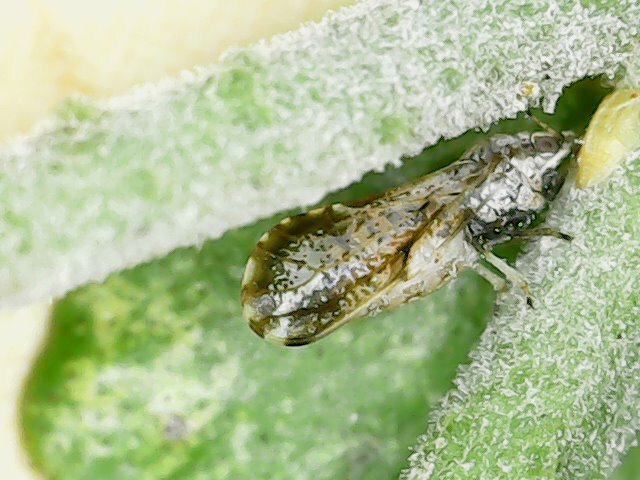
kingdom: Animalia
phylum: Arthropoda
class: Insecta
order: Hemiptera
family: Liviidae
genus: Diaphorina
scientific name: Diaphorina citri
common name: Asian citrus psyllid
